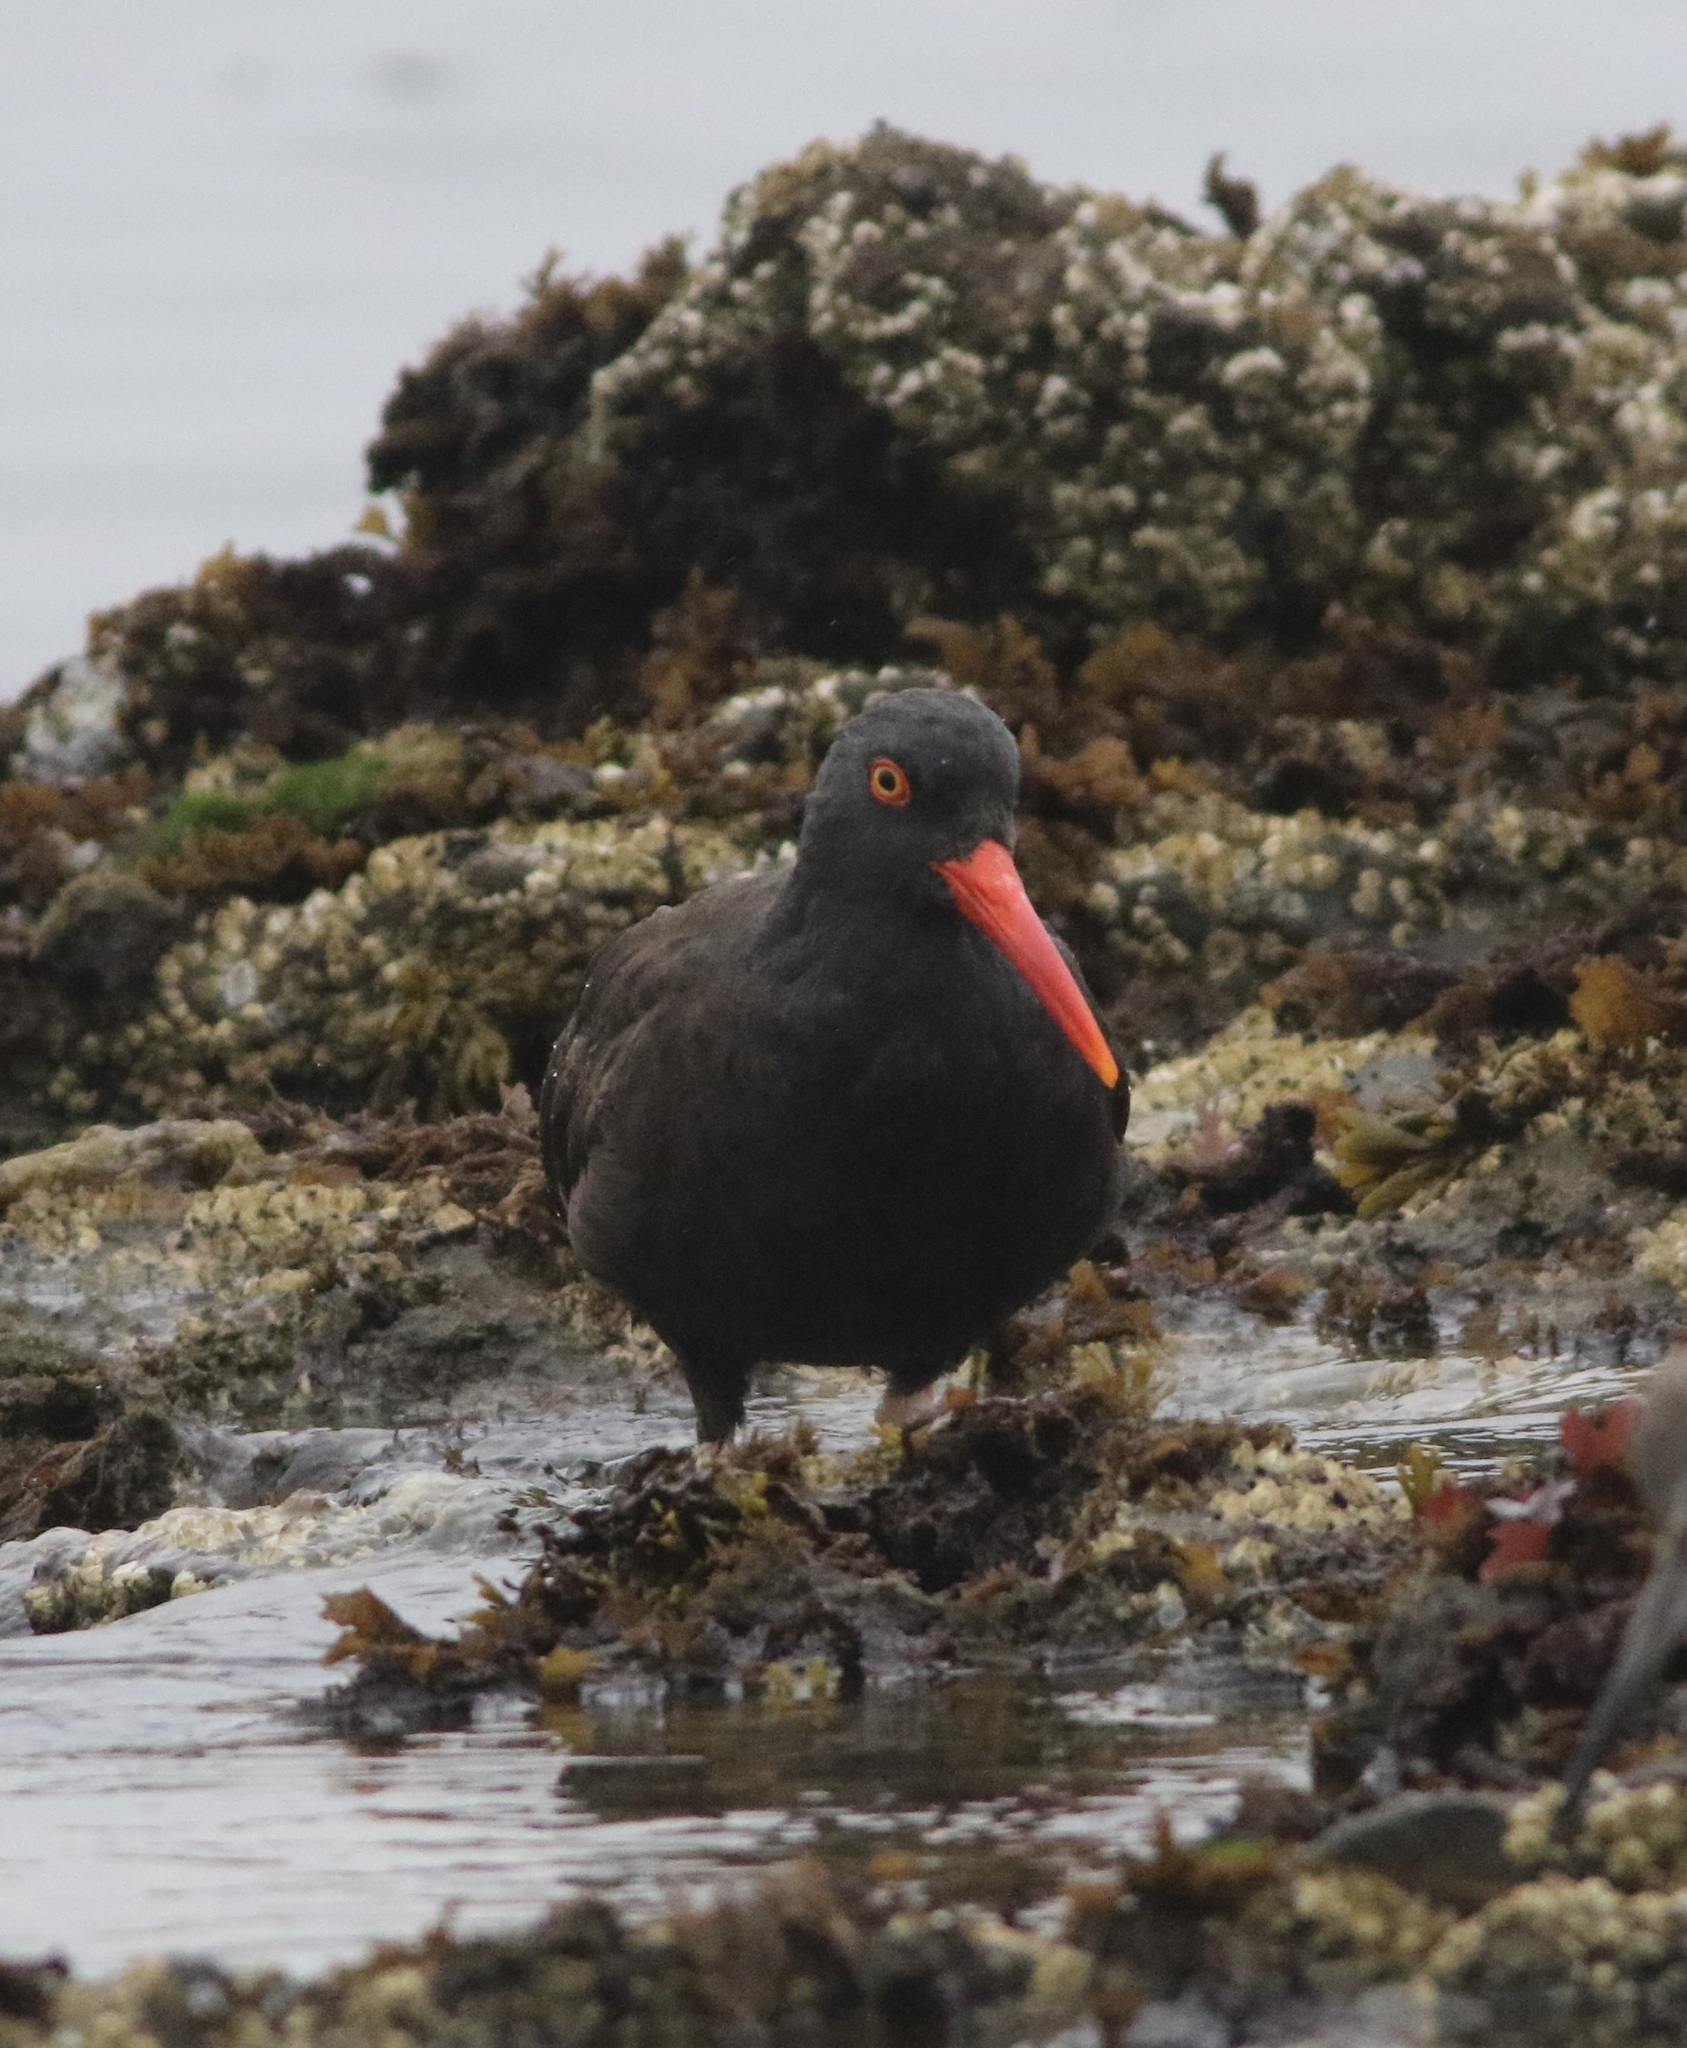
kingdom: Animalia
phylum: Chordata
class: Aves
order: Charadriiformes
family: Haematopodidae
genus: Haematopus
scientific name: Haematopus bachmani
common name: Black oystercatcher
